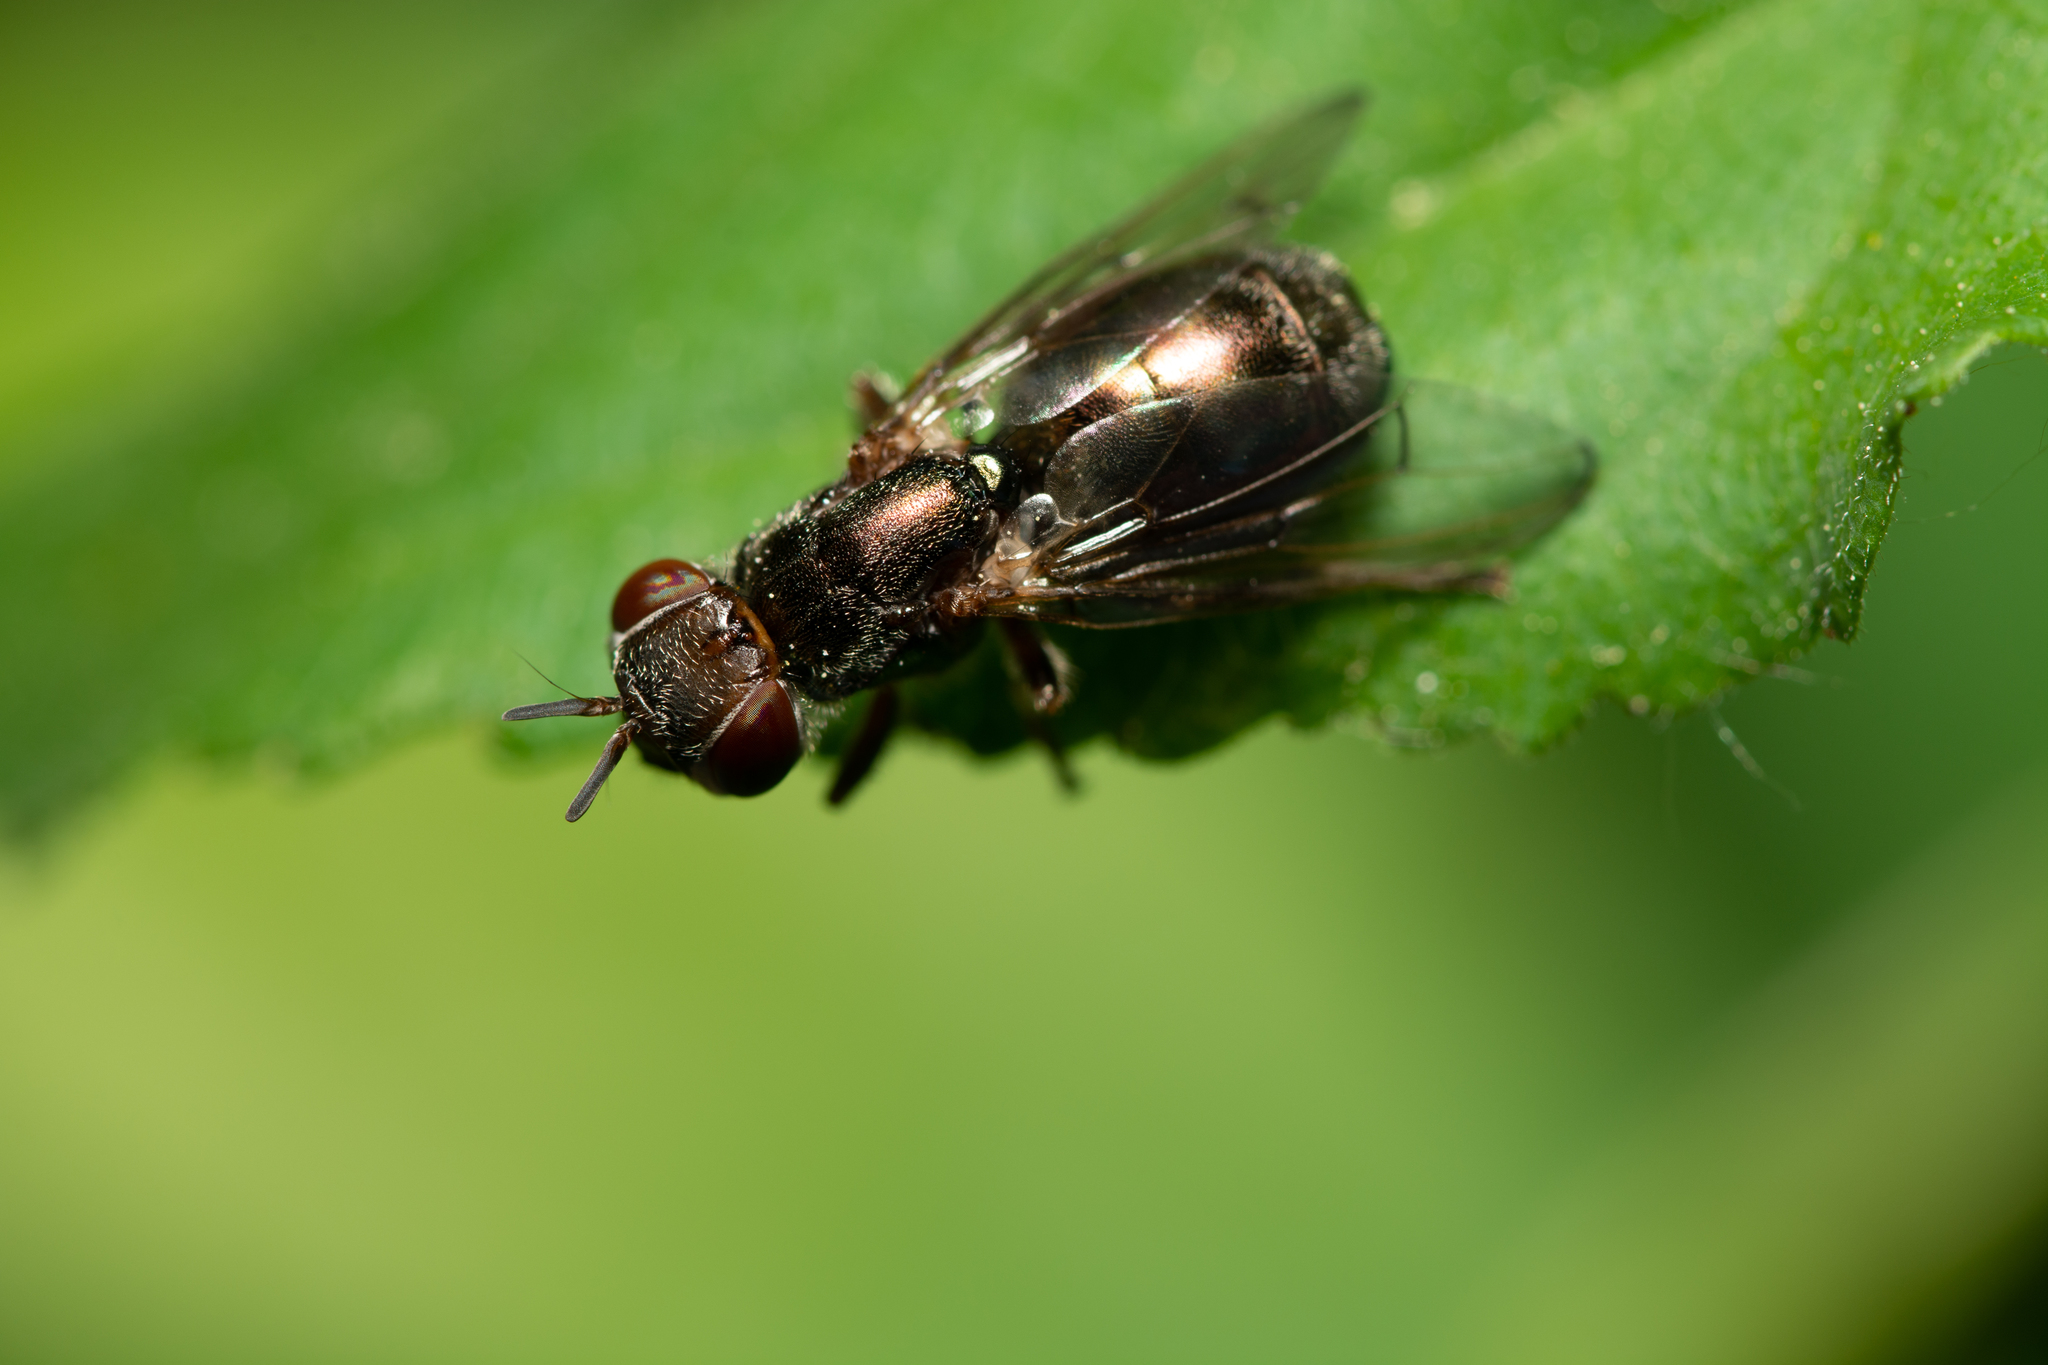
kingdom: Animalia
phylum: Arthropoda
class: Insecta
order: Diptera
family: Platystomatidae
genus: Senopterina
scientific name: Senopterina foxleei
